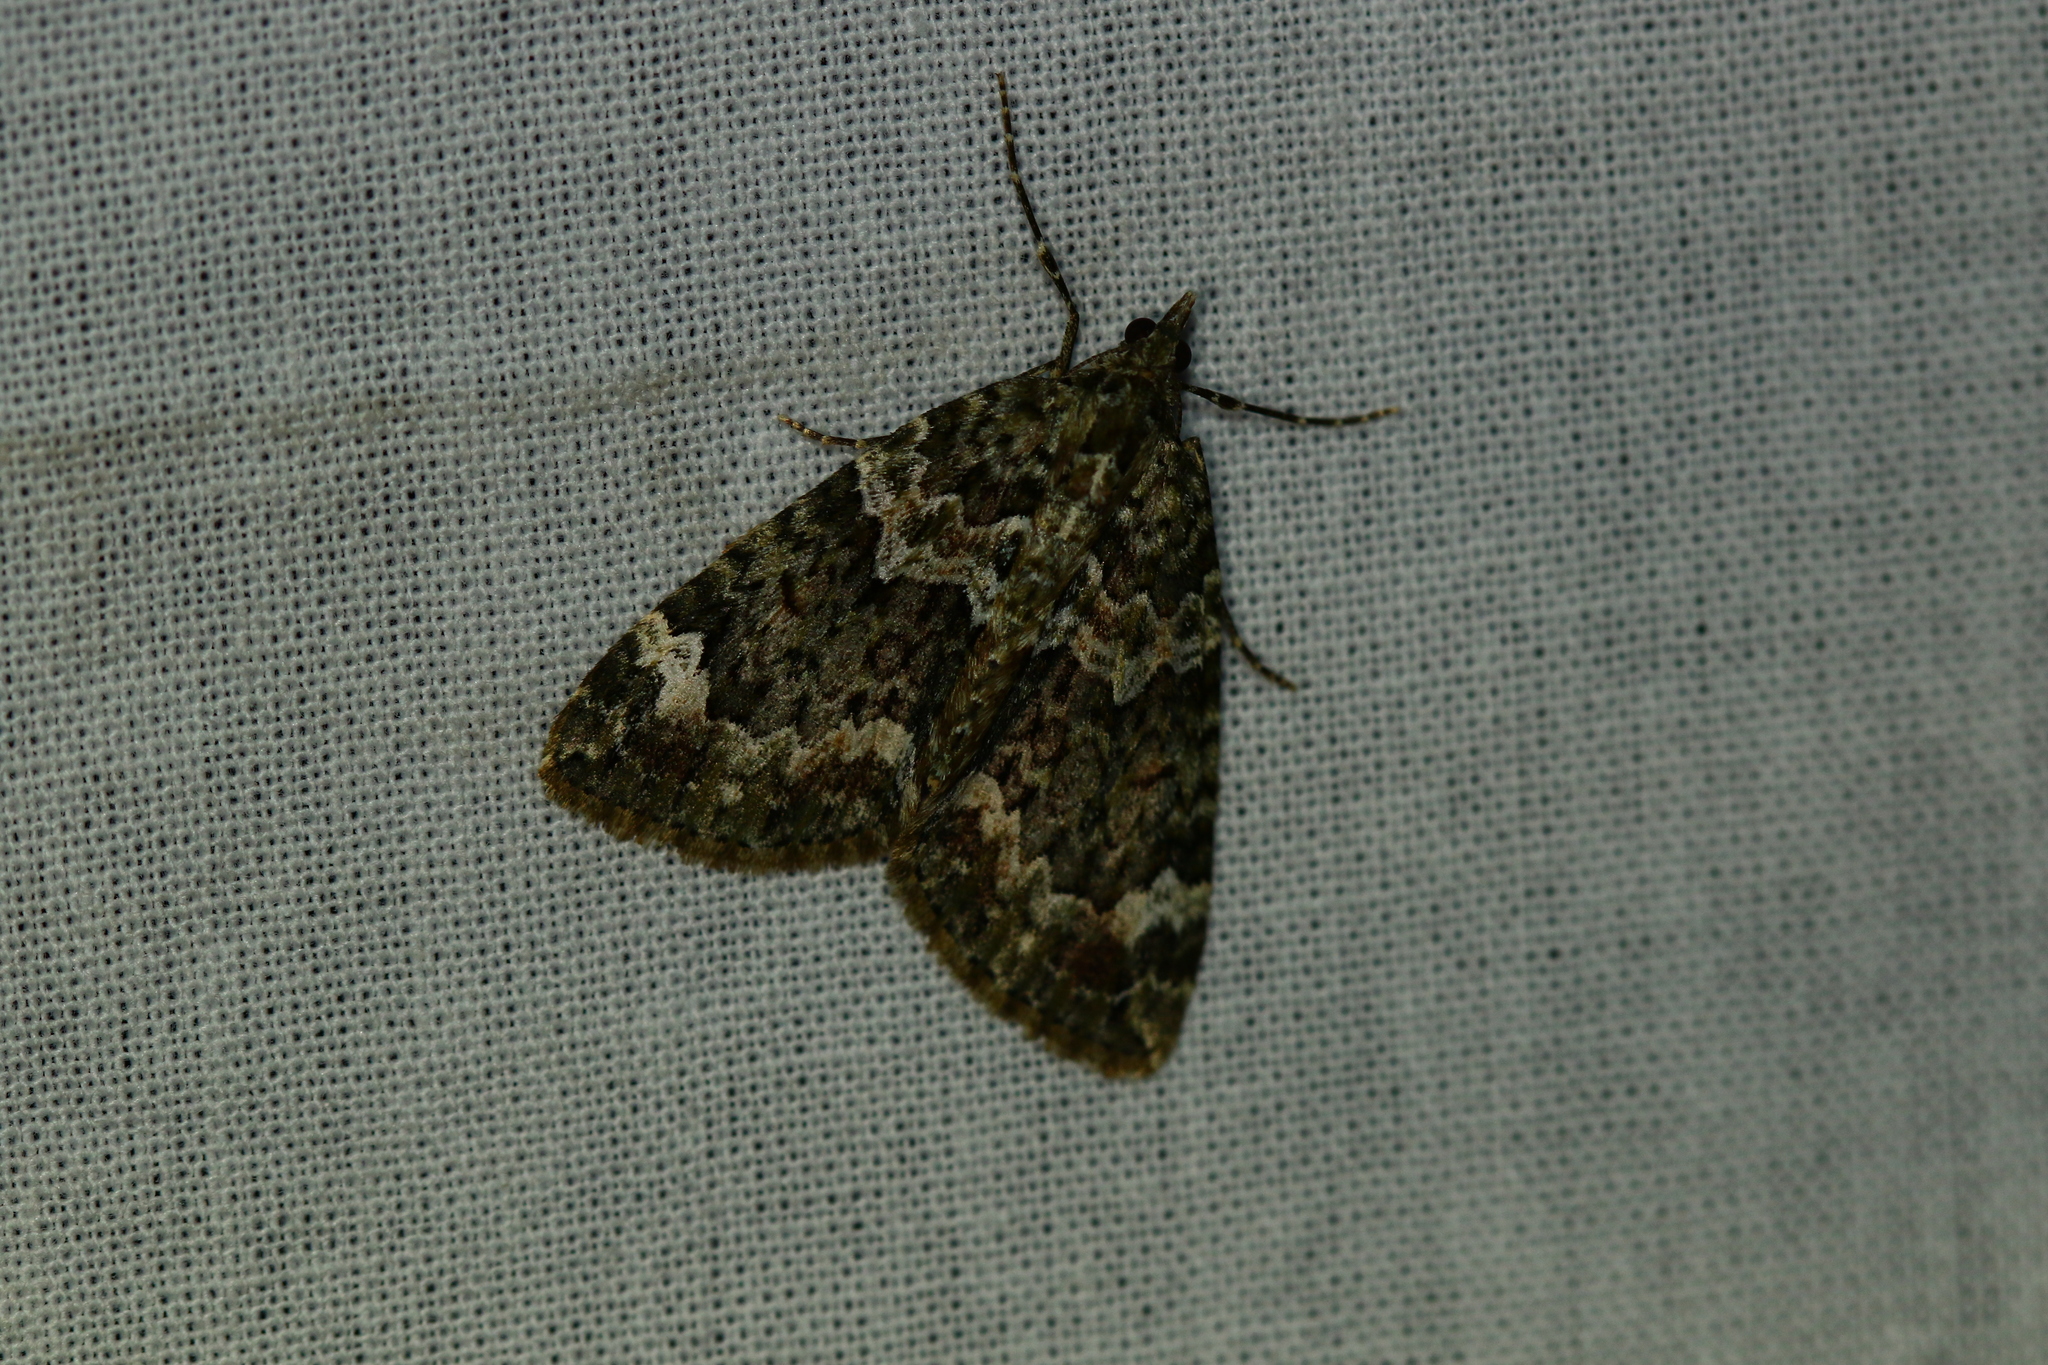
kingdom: Animalia
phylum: Arthropoda
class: Insecta
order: Lepidoptera
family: Geometridae
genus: Chloroclysta
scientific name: Chloroclysta siterata
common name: Red-green carpet
